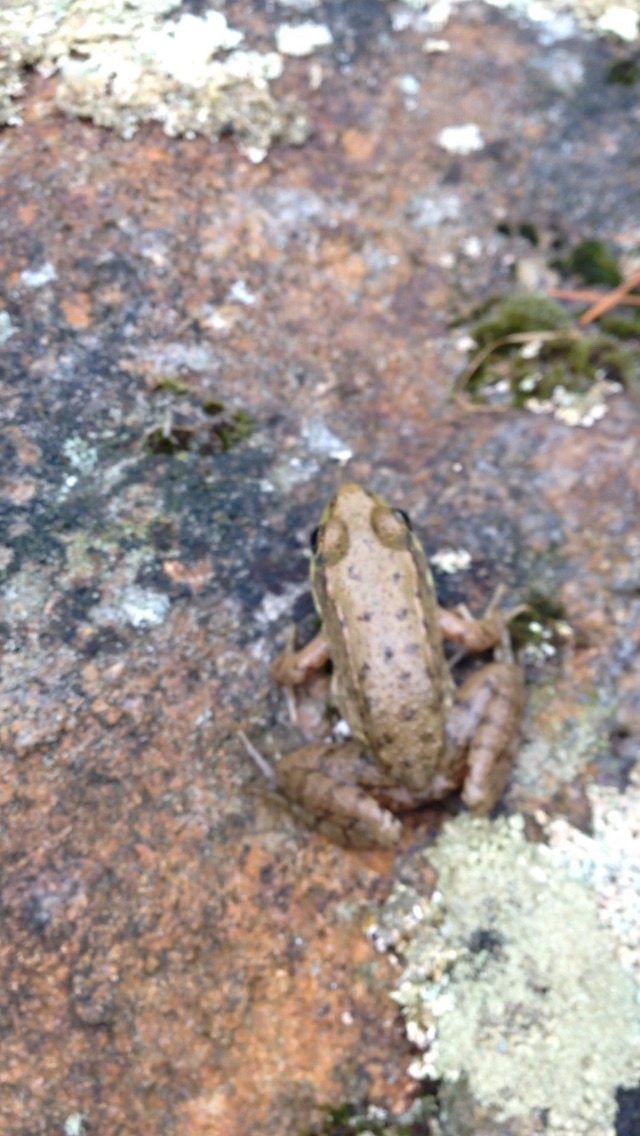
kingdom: Animalia
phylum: Chordata
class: Amphibia
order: Anura
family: Ranidae
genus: Lithobates
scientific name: Lithobates clamitans
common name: Green frog
